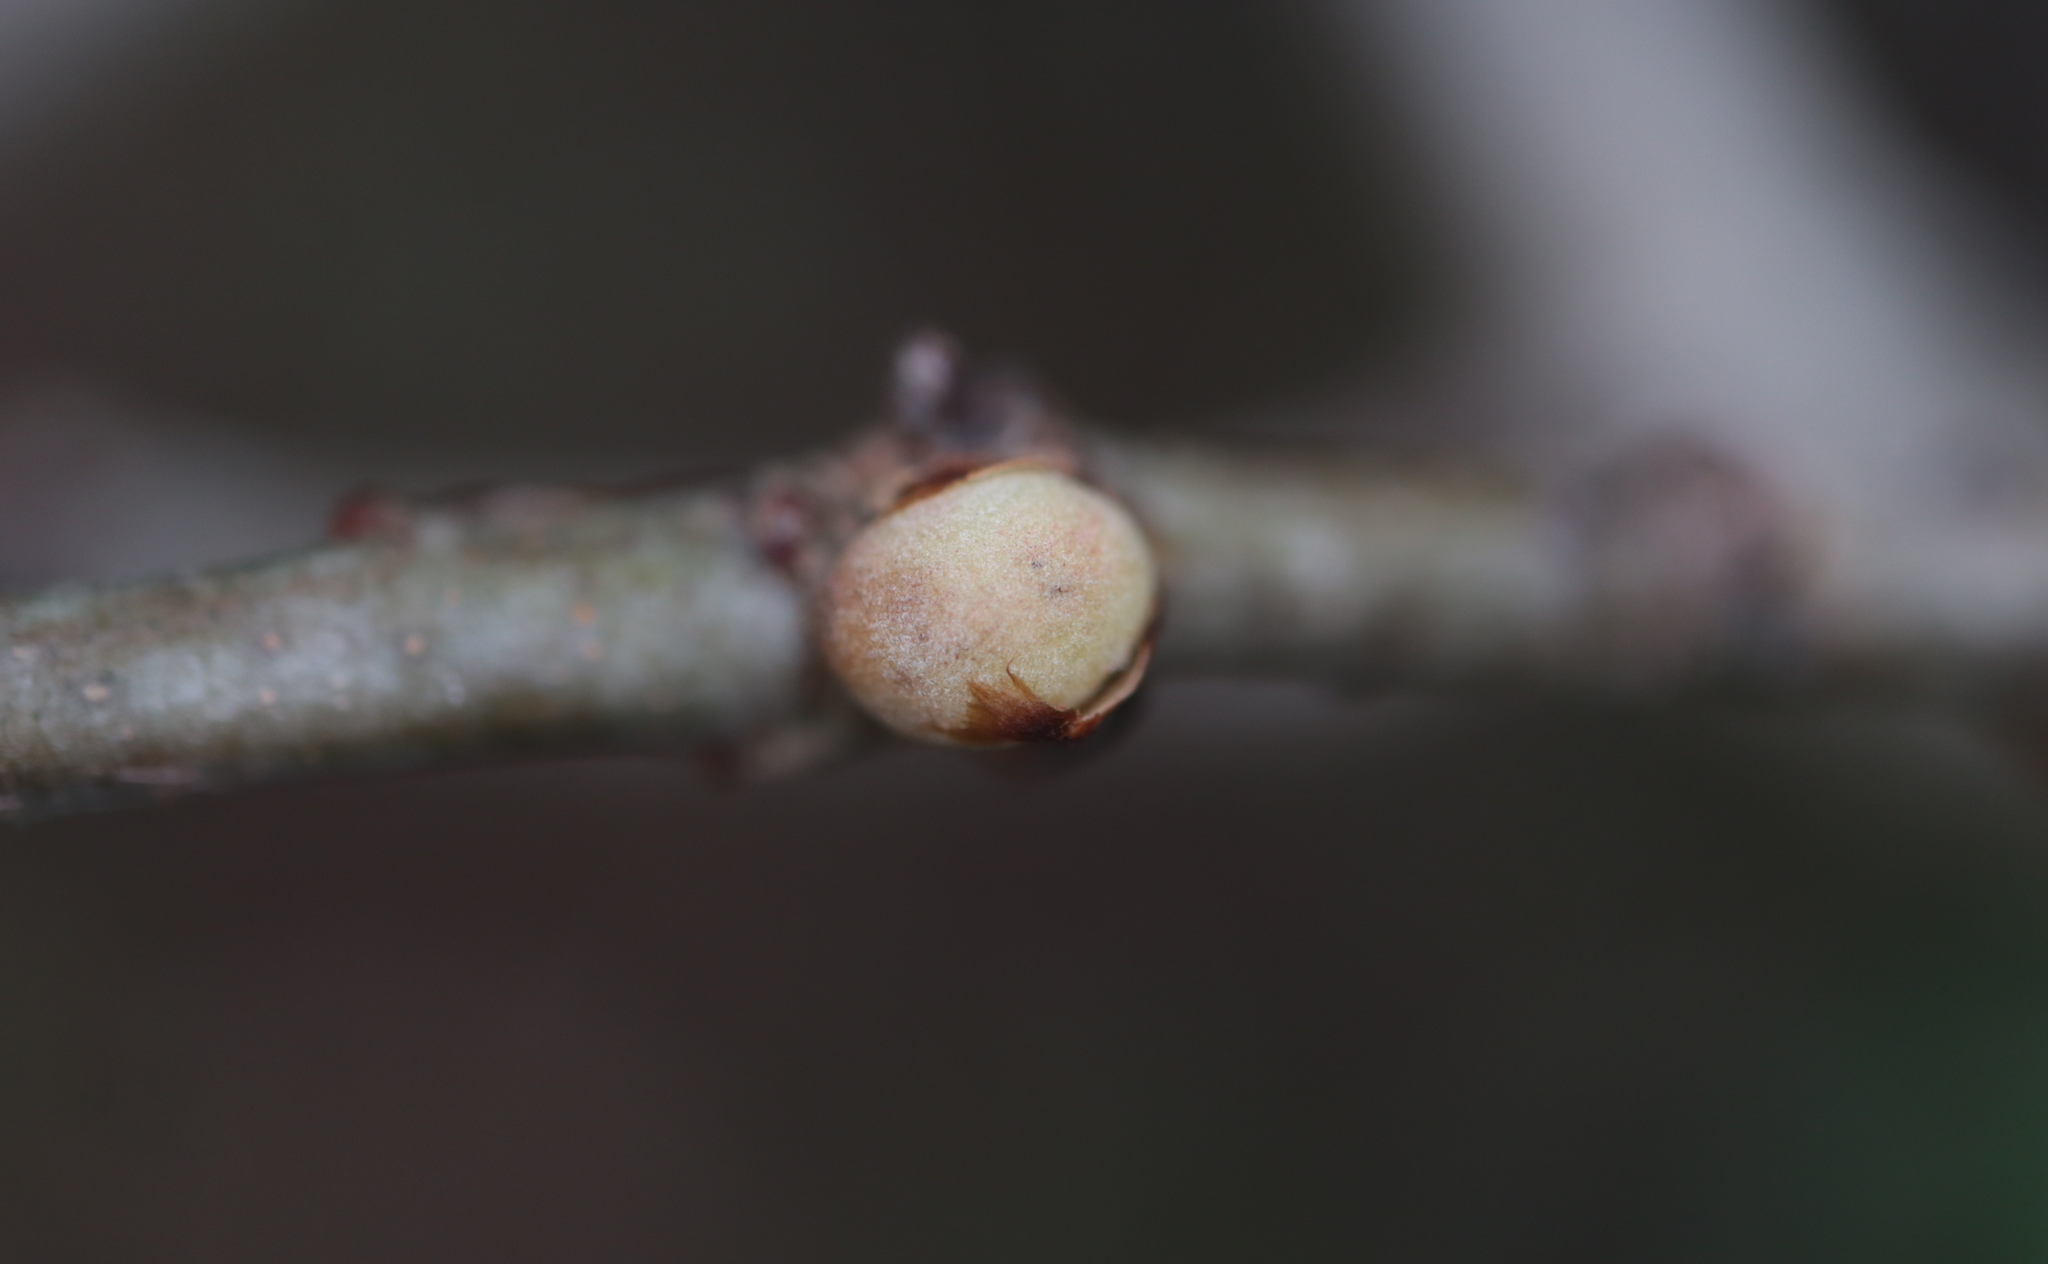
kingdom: Animalia
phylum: Arthropoda
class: Insecta
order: Hymenoptera
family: Cynipidae
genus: Disholcaspis
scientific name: Disholcaspis quercusglobulus
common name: Round bullet gall wasp
